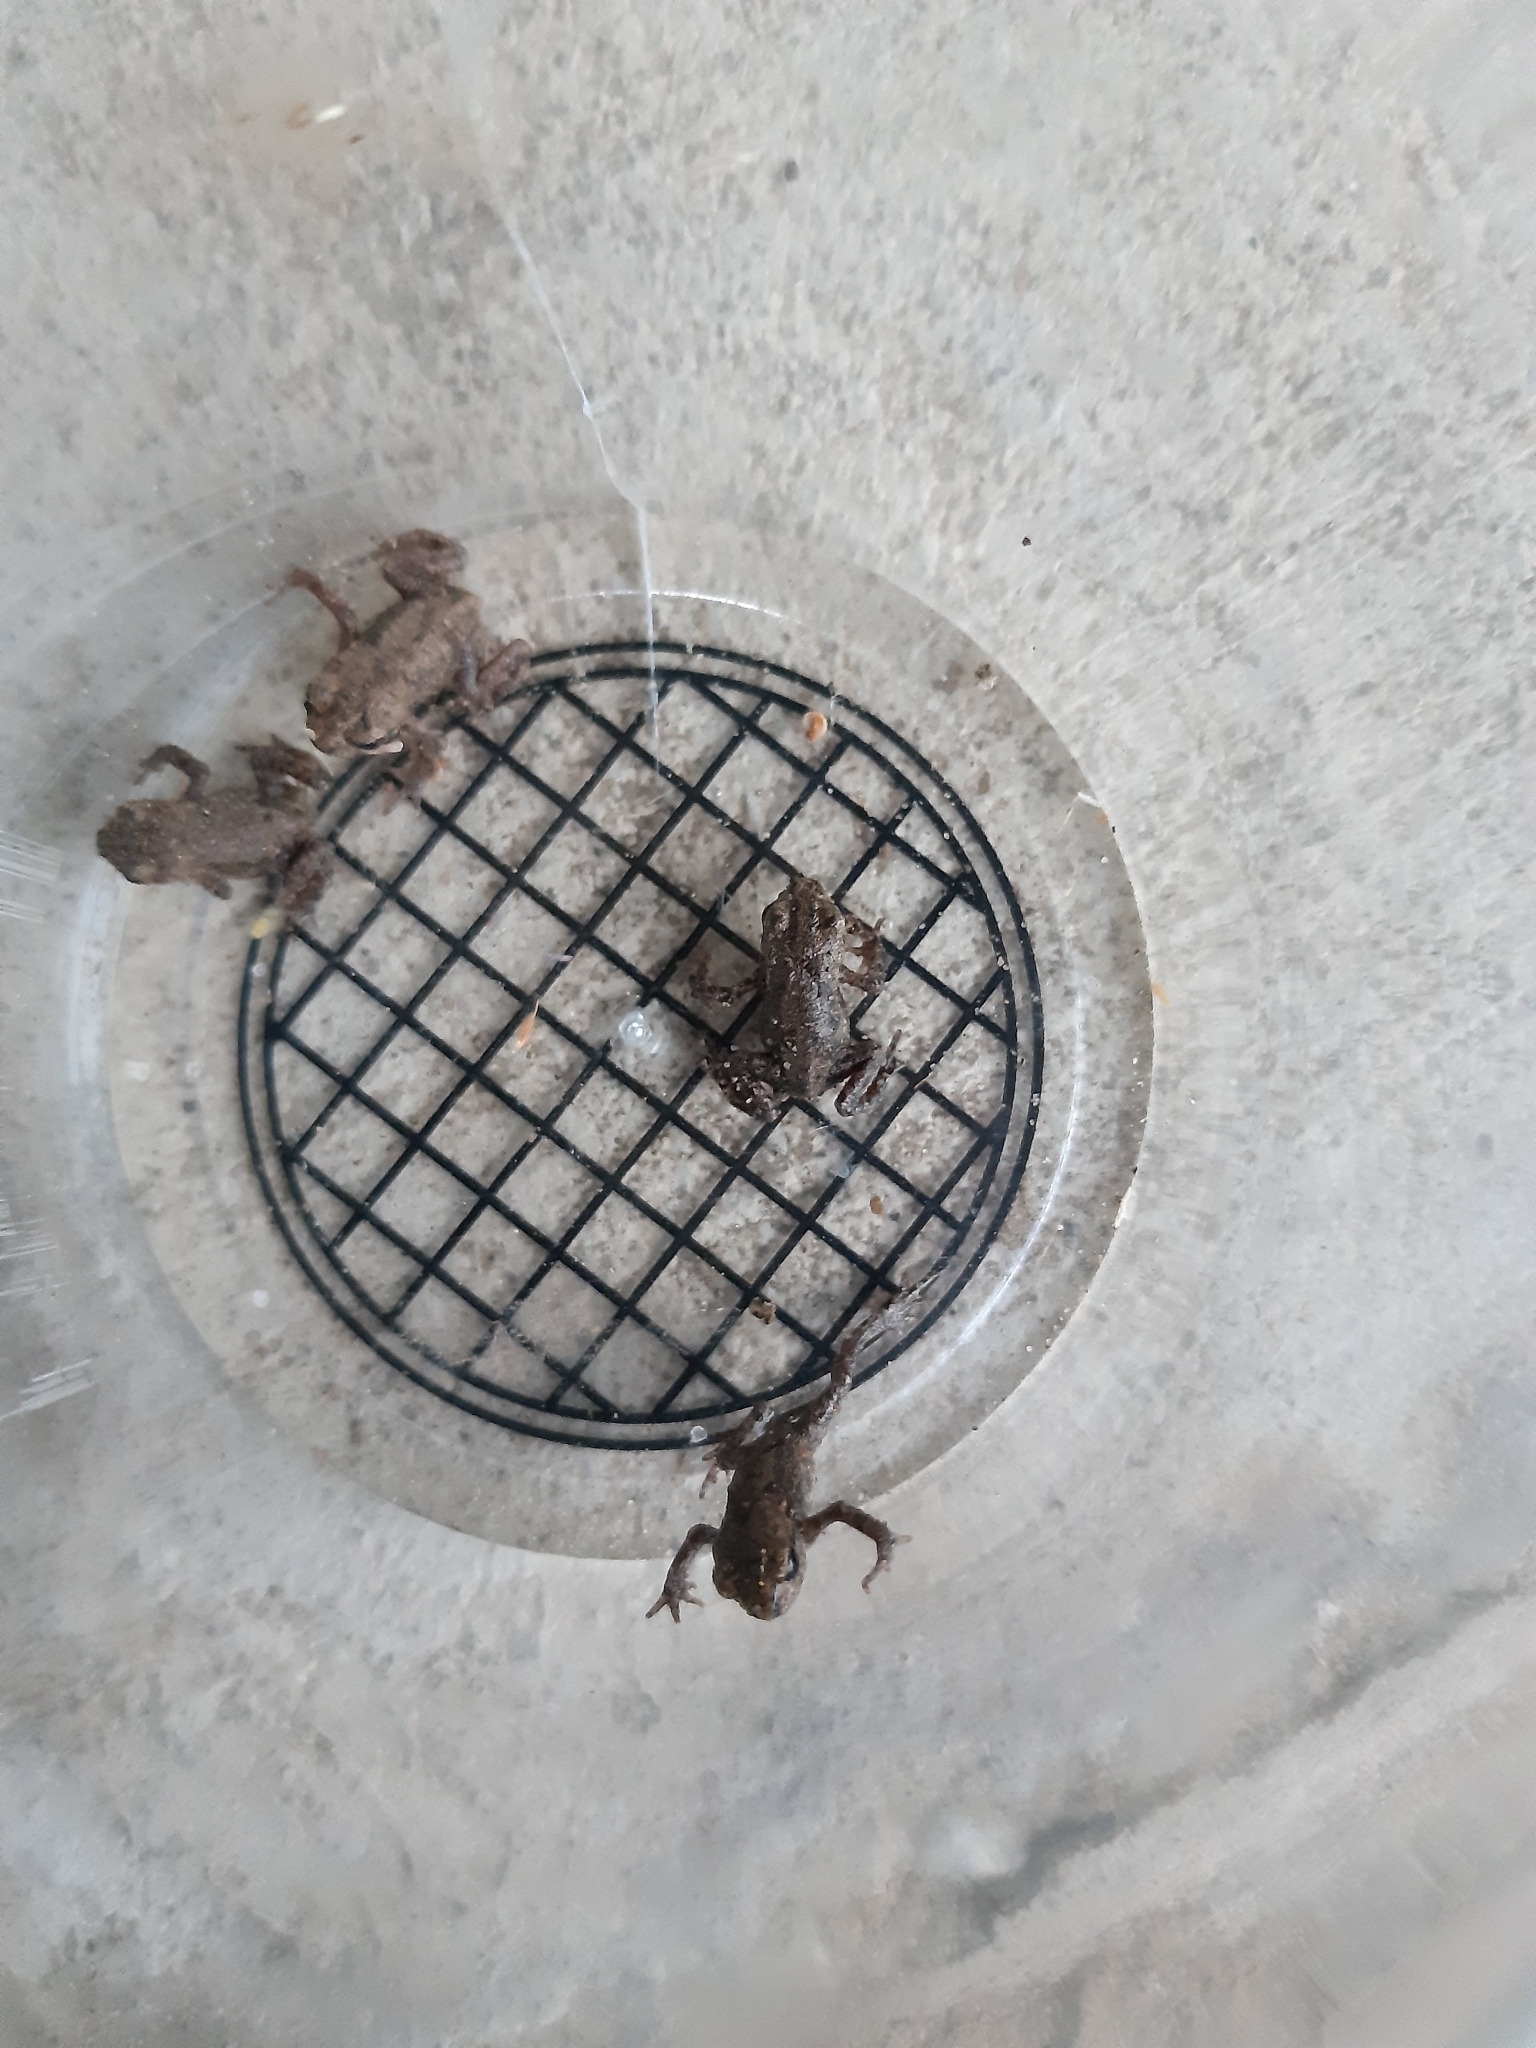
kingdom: Animalia
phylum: Chordata
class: Amphibia
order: Anura
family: Bufonidae
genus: Bufo
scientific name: Bufo bufo
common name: Common toad
